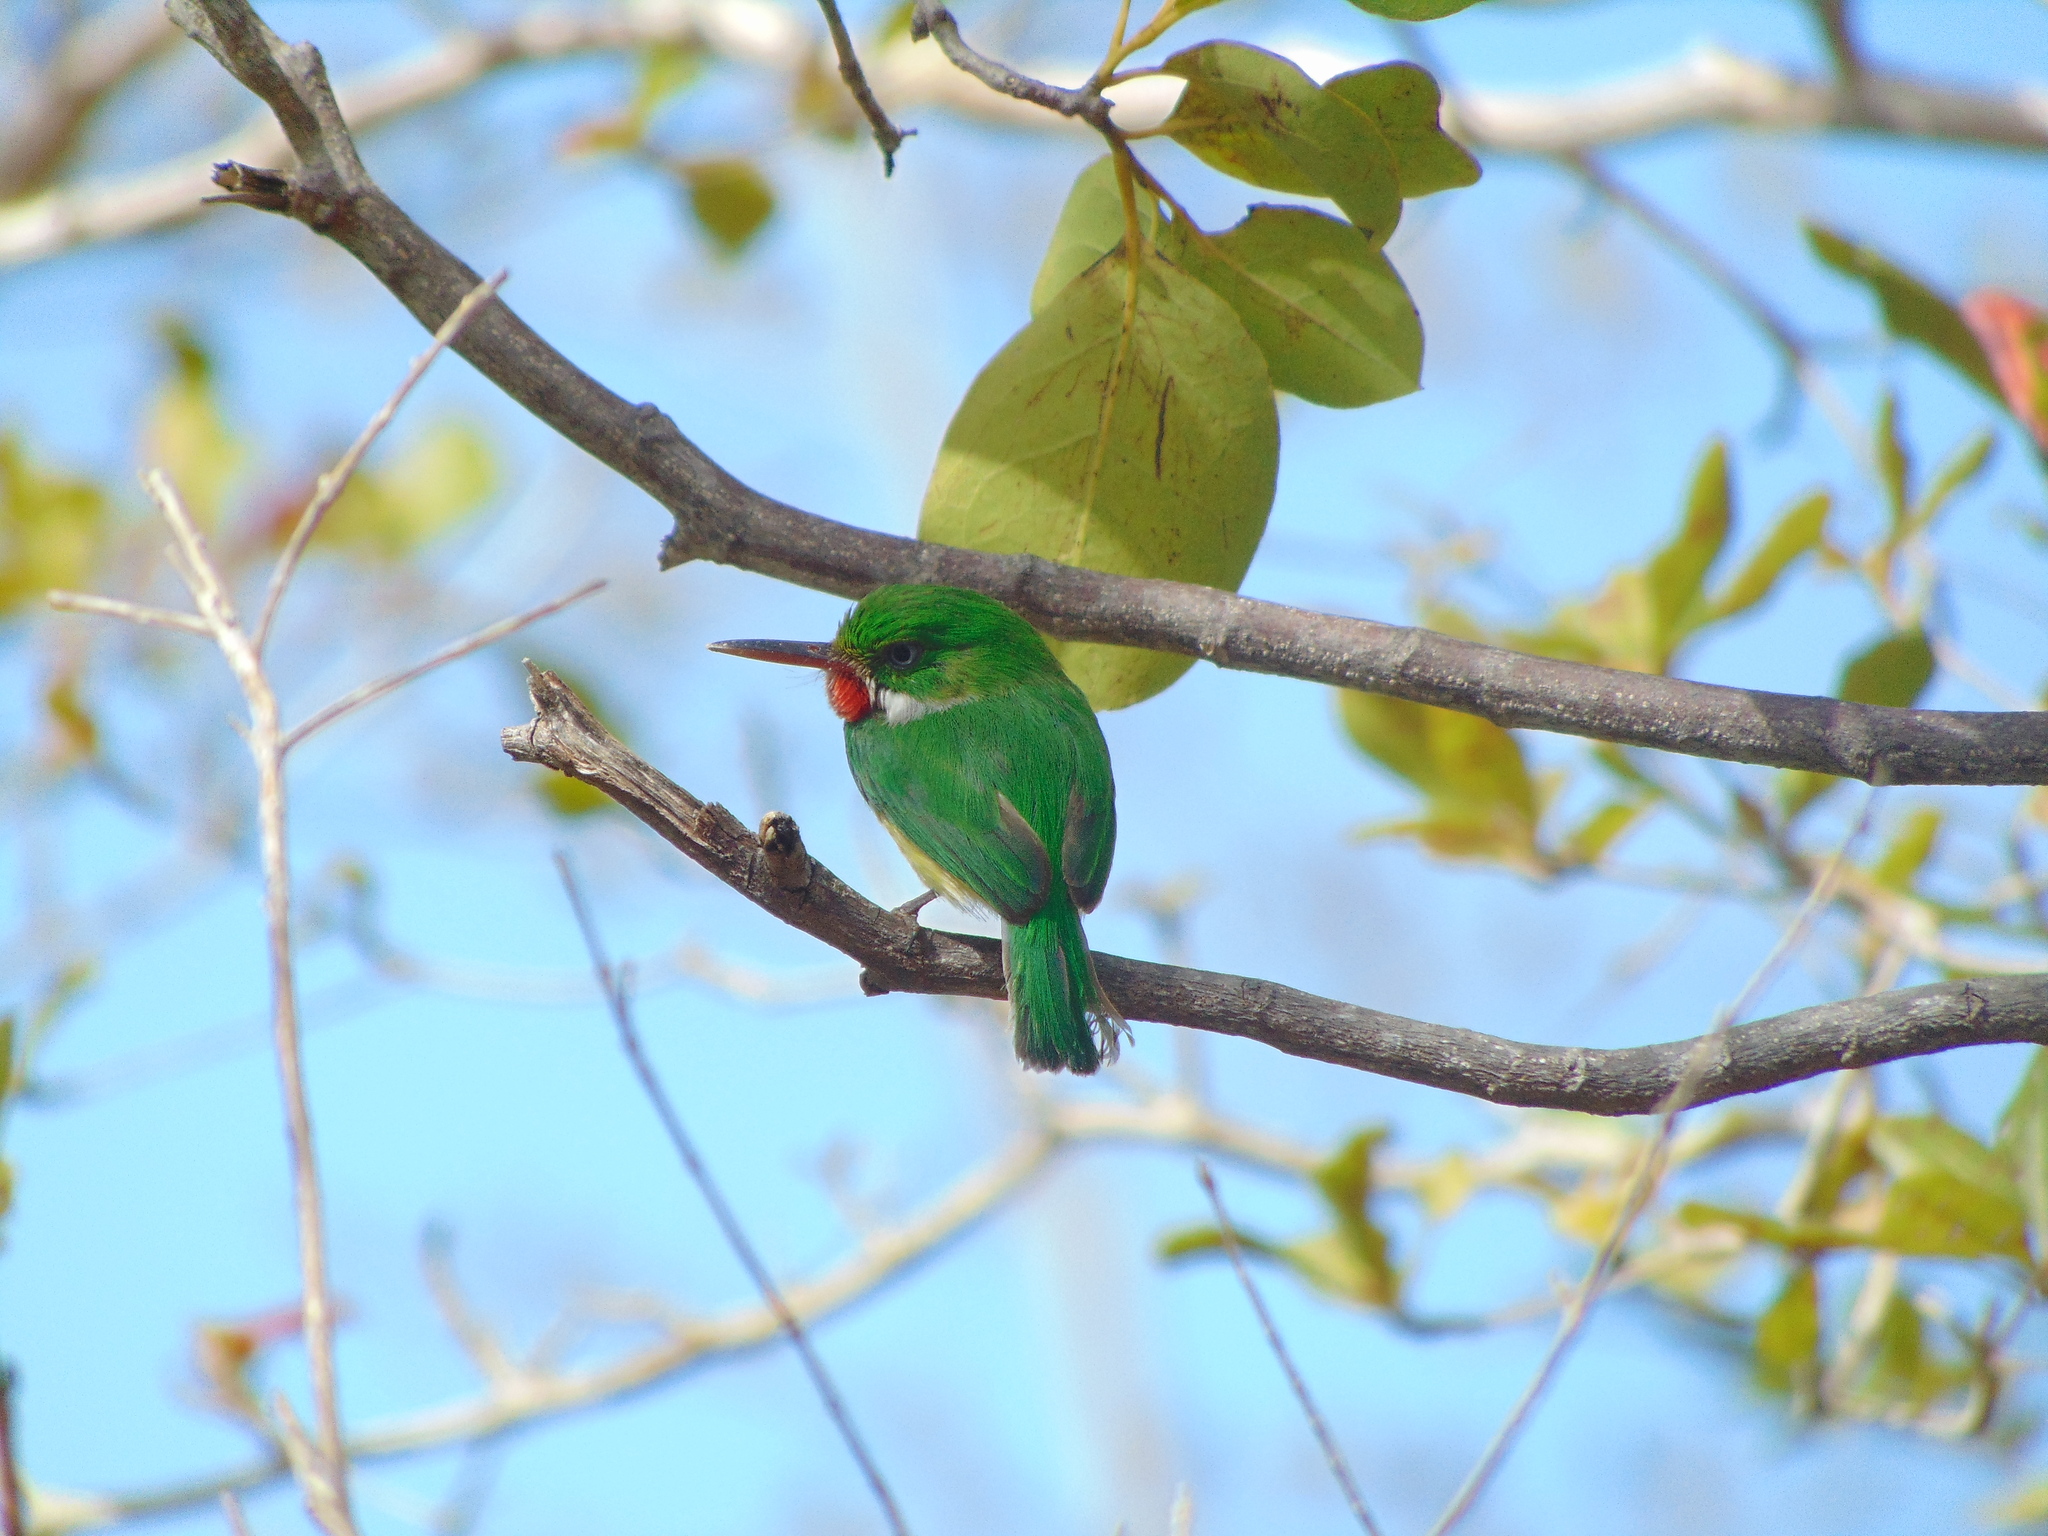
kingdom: Animalia
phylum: Chordata
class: Aves
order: Coraciiformes
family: Todidae
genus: Todus
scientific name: Todus mexicanus
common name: Puerto rican tody
